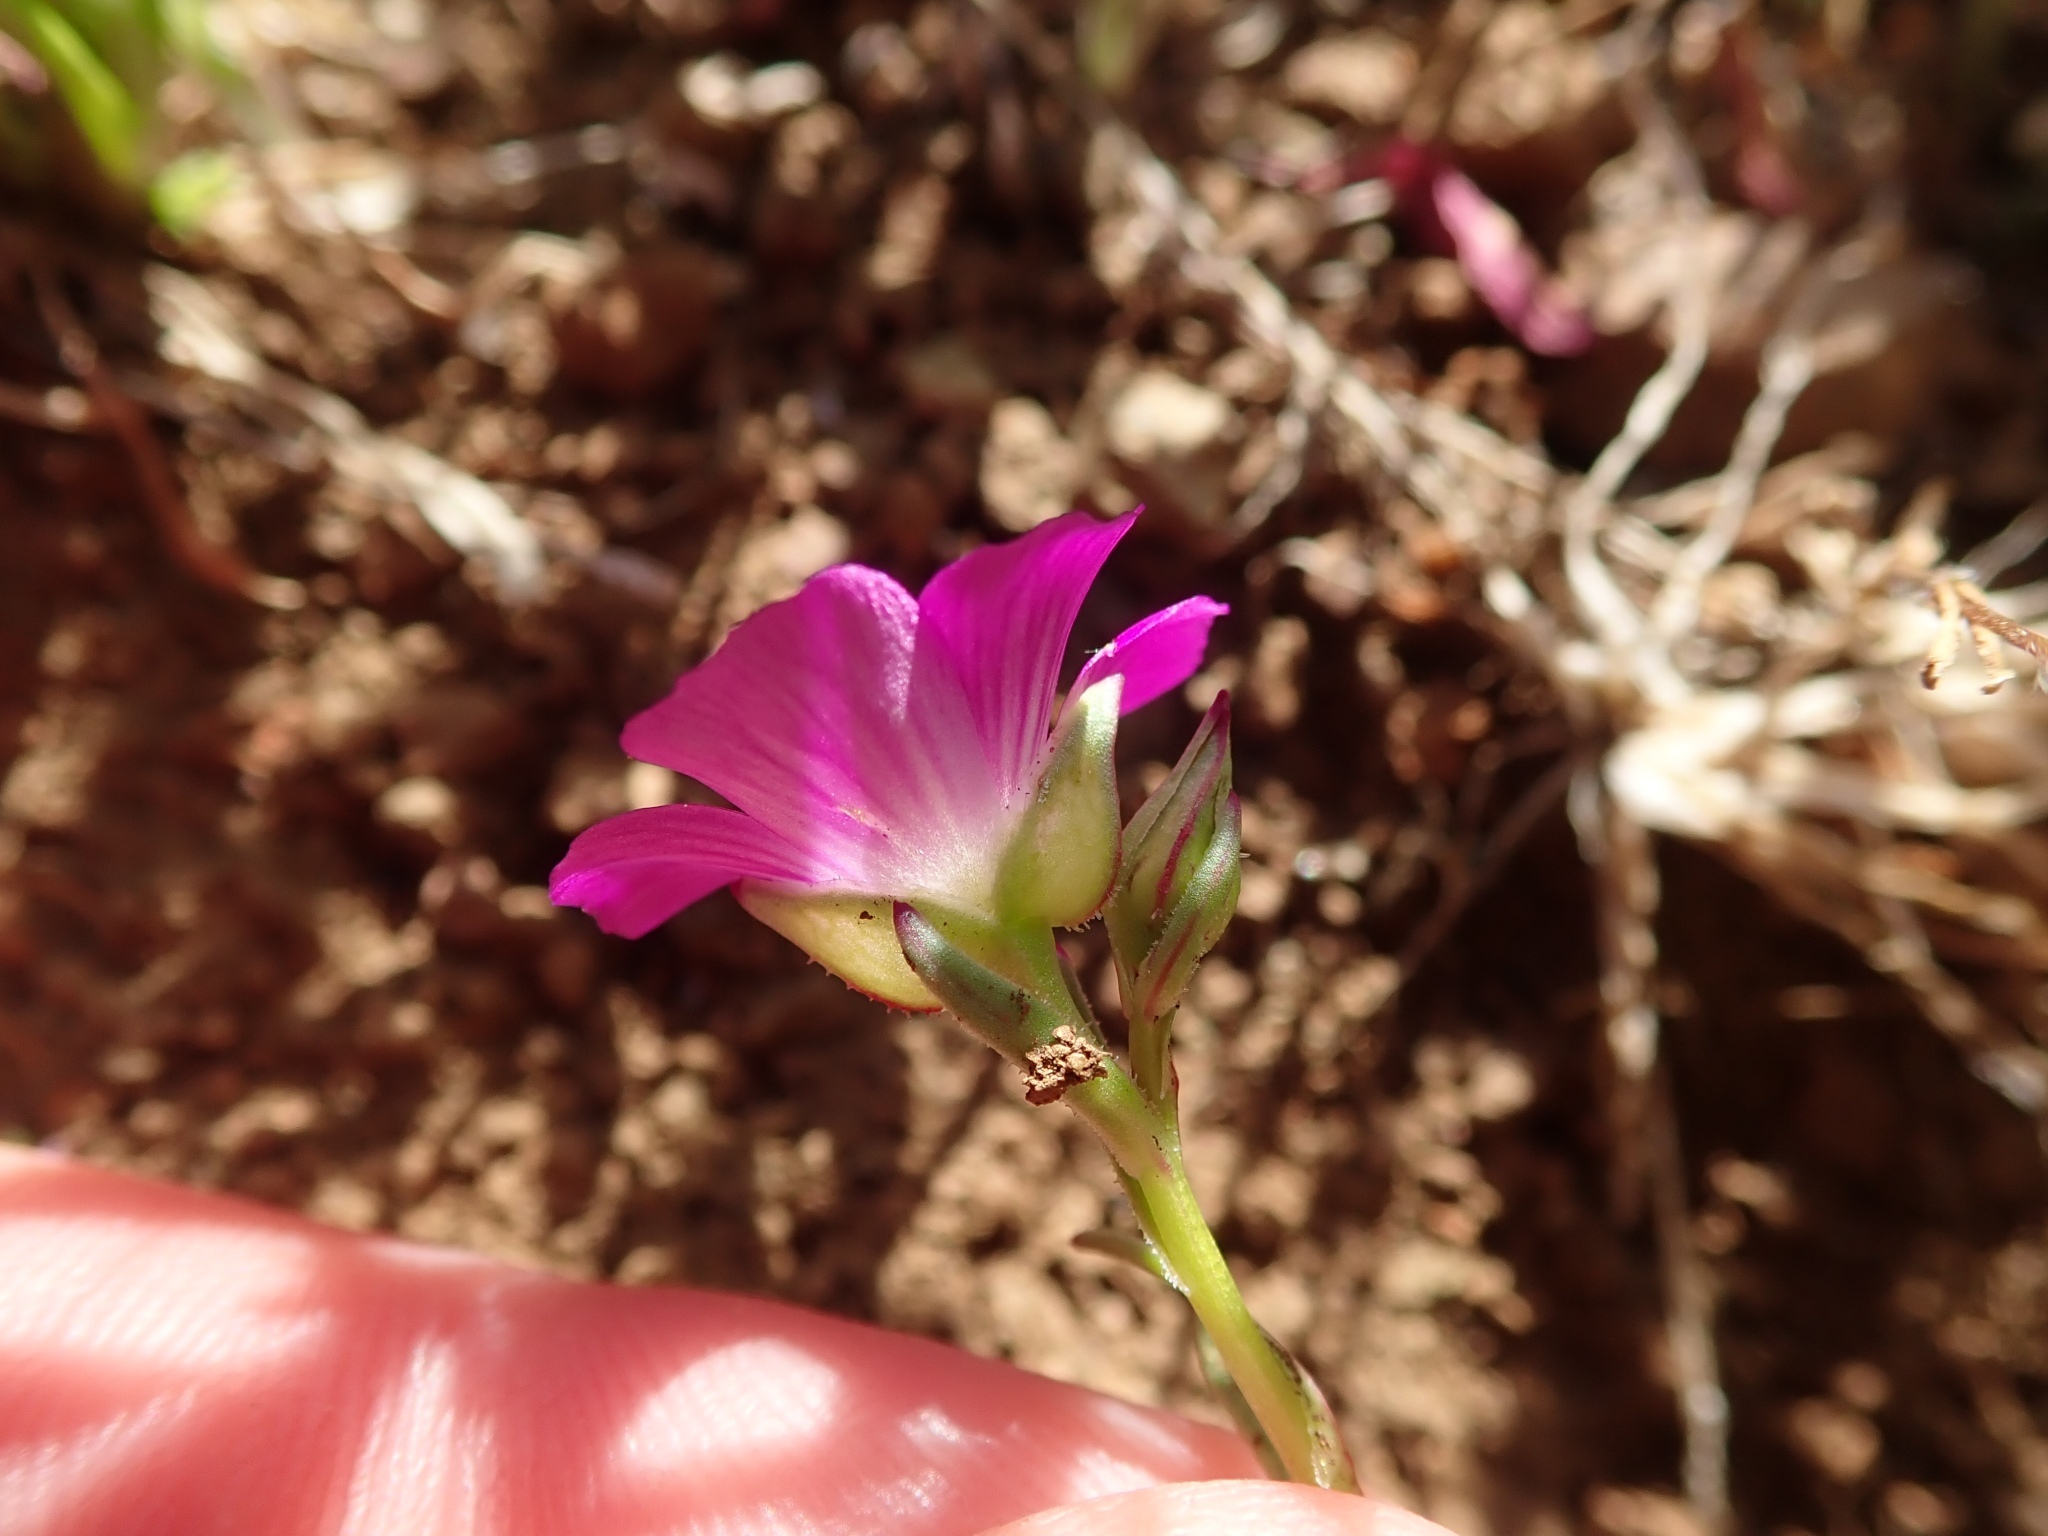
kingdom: Plantae
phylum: Tracheophyta
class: Magnoliopsida
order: Caryophyllales
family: Montiaceae
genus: Calandrinia
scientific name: Calandrinia menziesii
